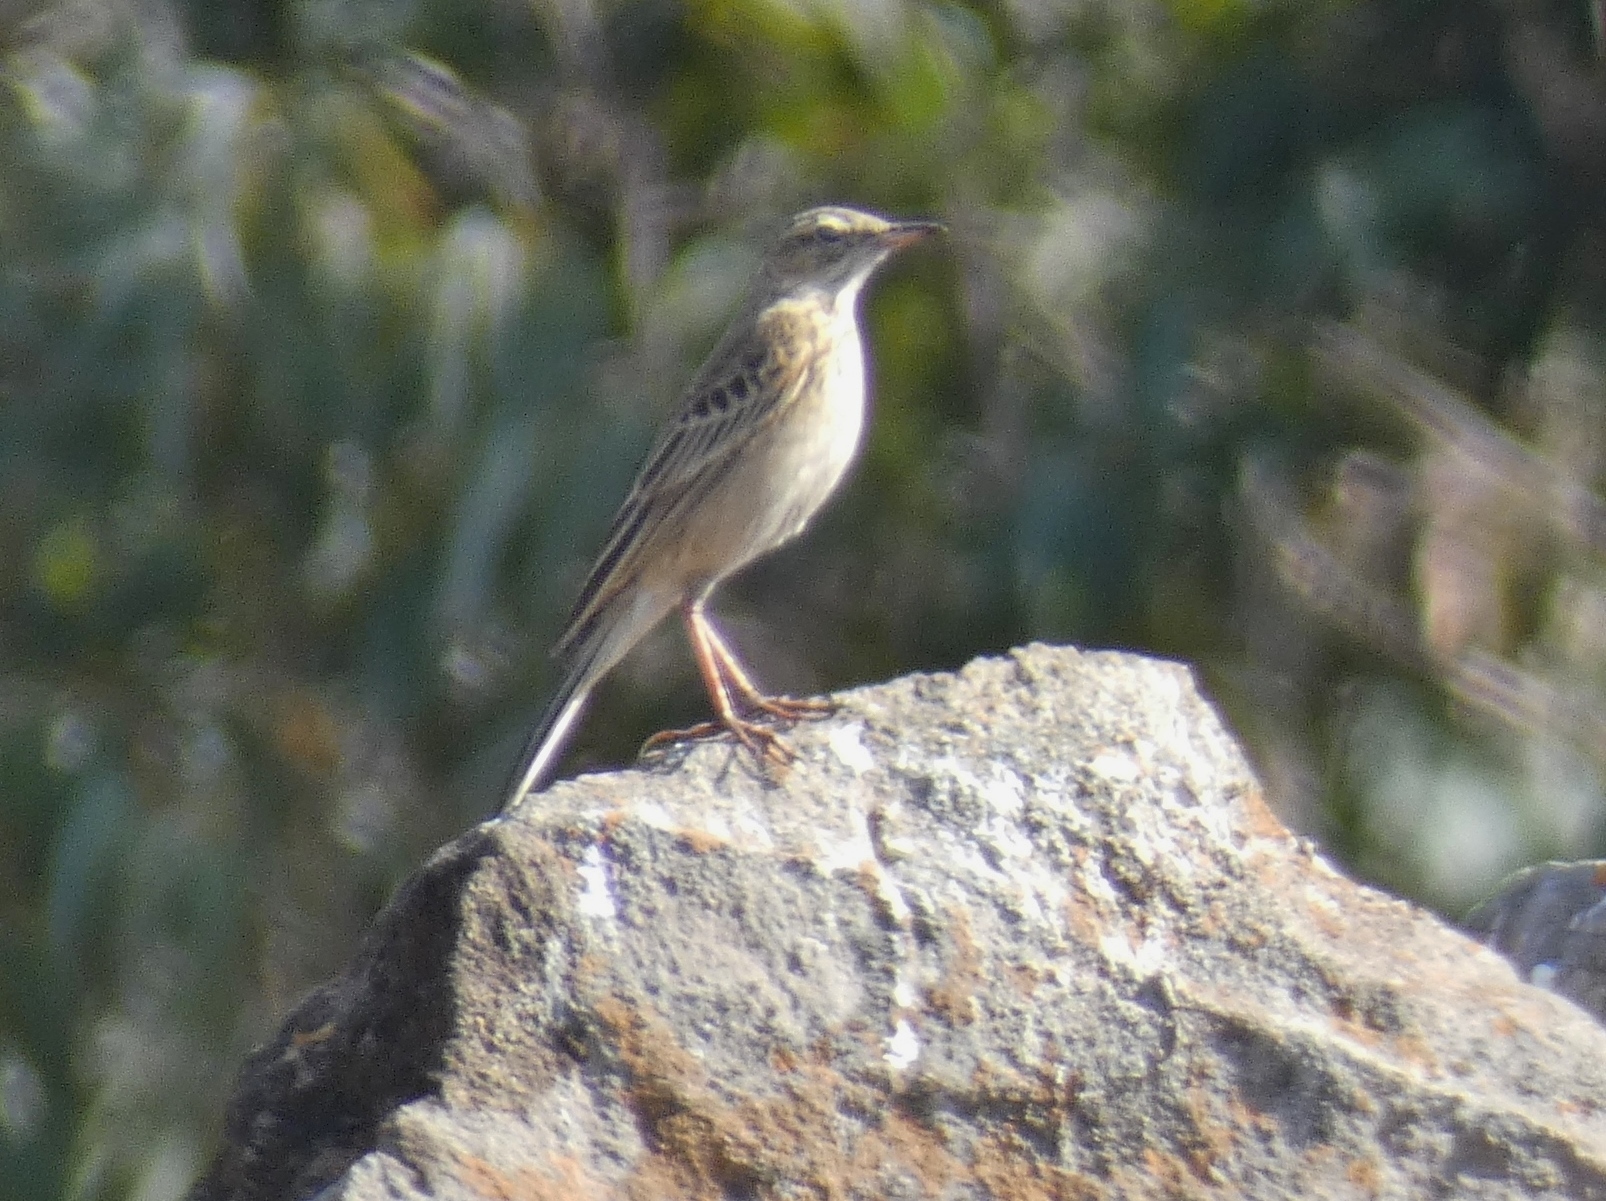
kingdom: Animalia
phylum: Chordata
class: Aves
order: Passeriformes
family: Motacillidae
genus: Anthus
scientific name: Anthus nicholsoni
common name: Nicholson's pipit
